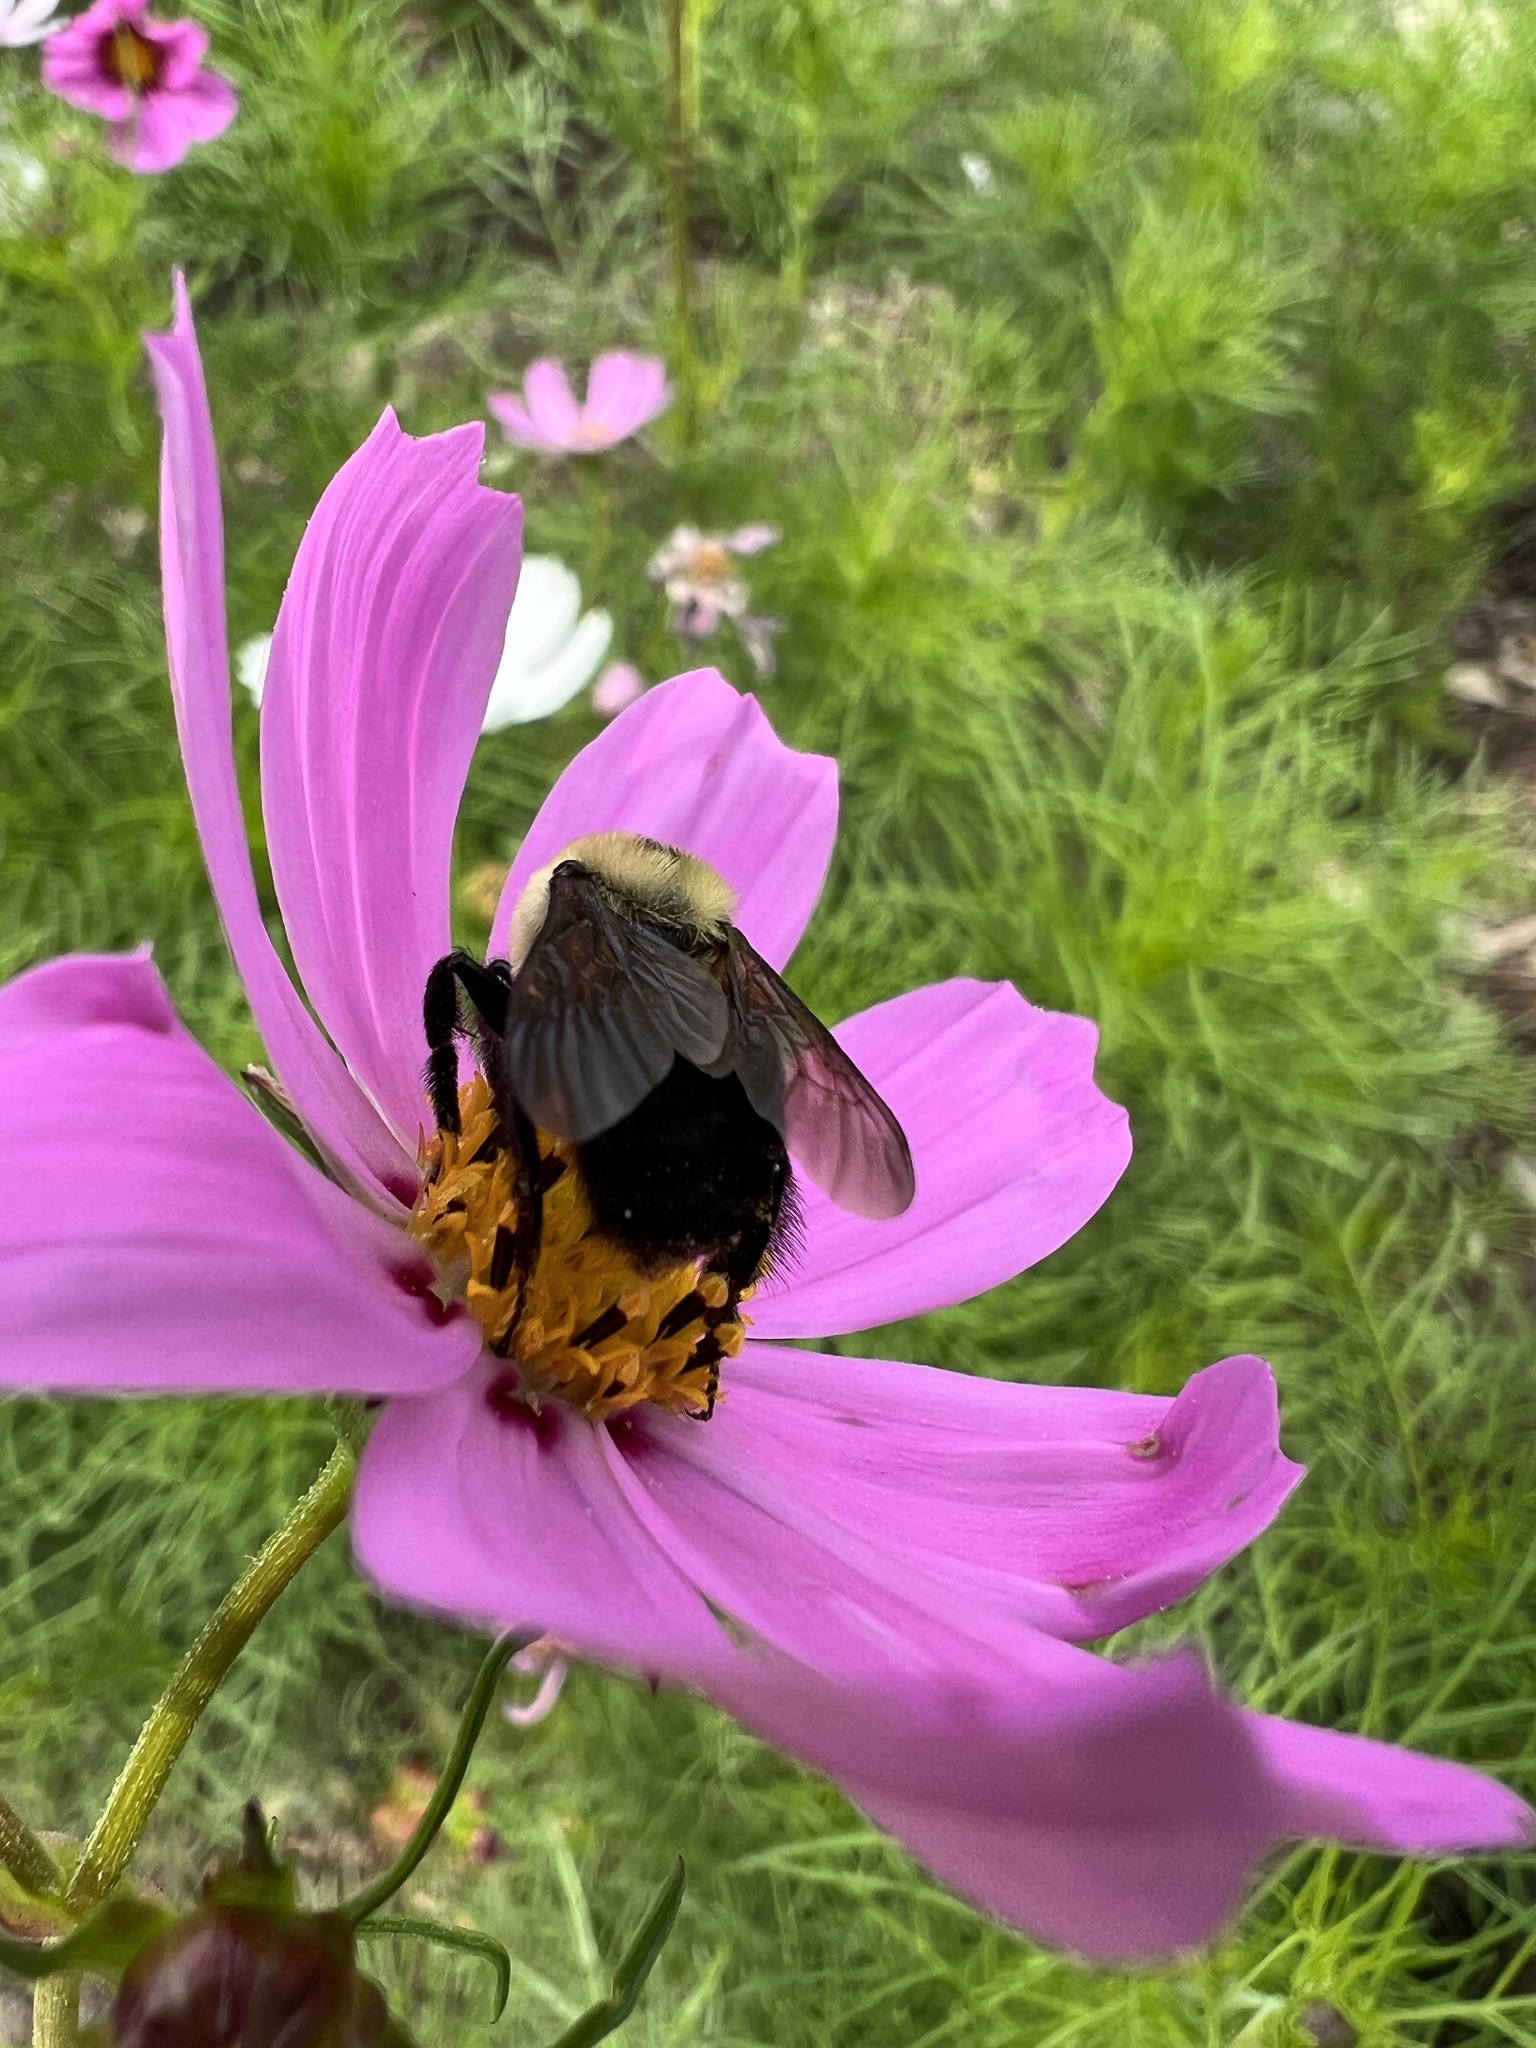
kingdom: Animalia
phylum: Arthropoda
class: Insecta
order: Hymenoptera
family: Apidae
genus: Bombus
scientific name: Bombus griseocollis
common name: Brown-belted bumble bee
